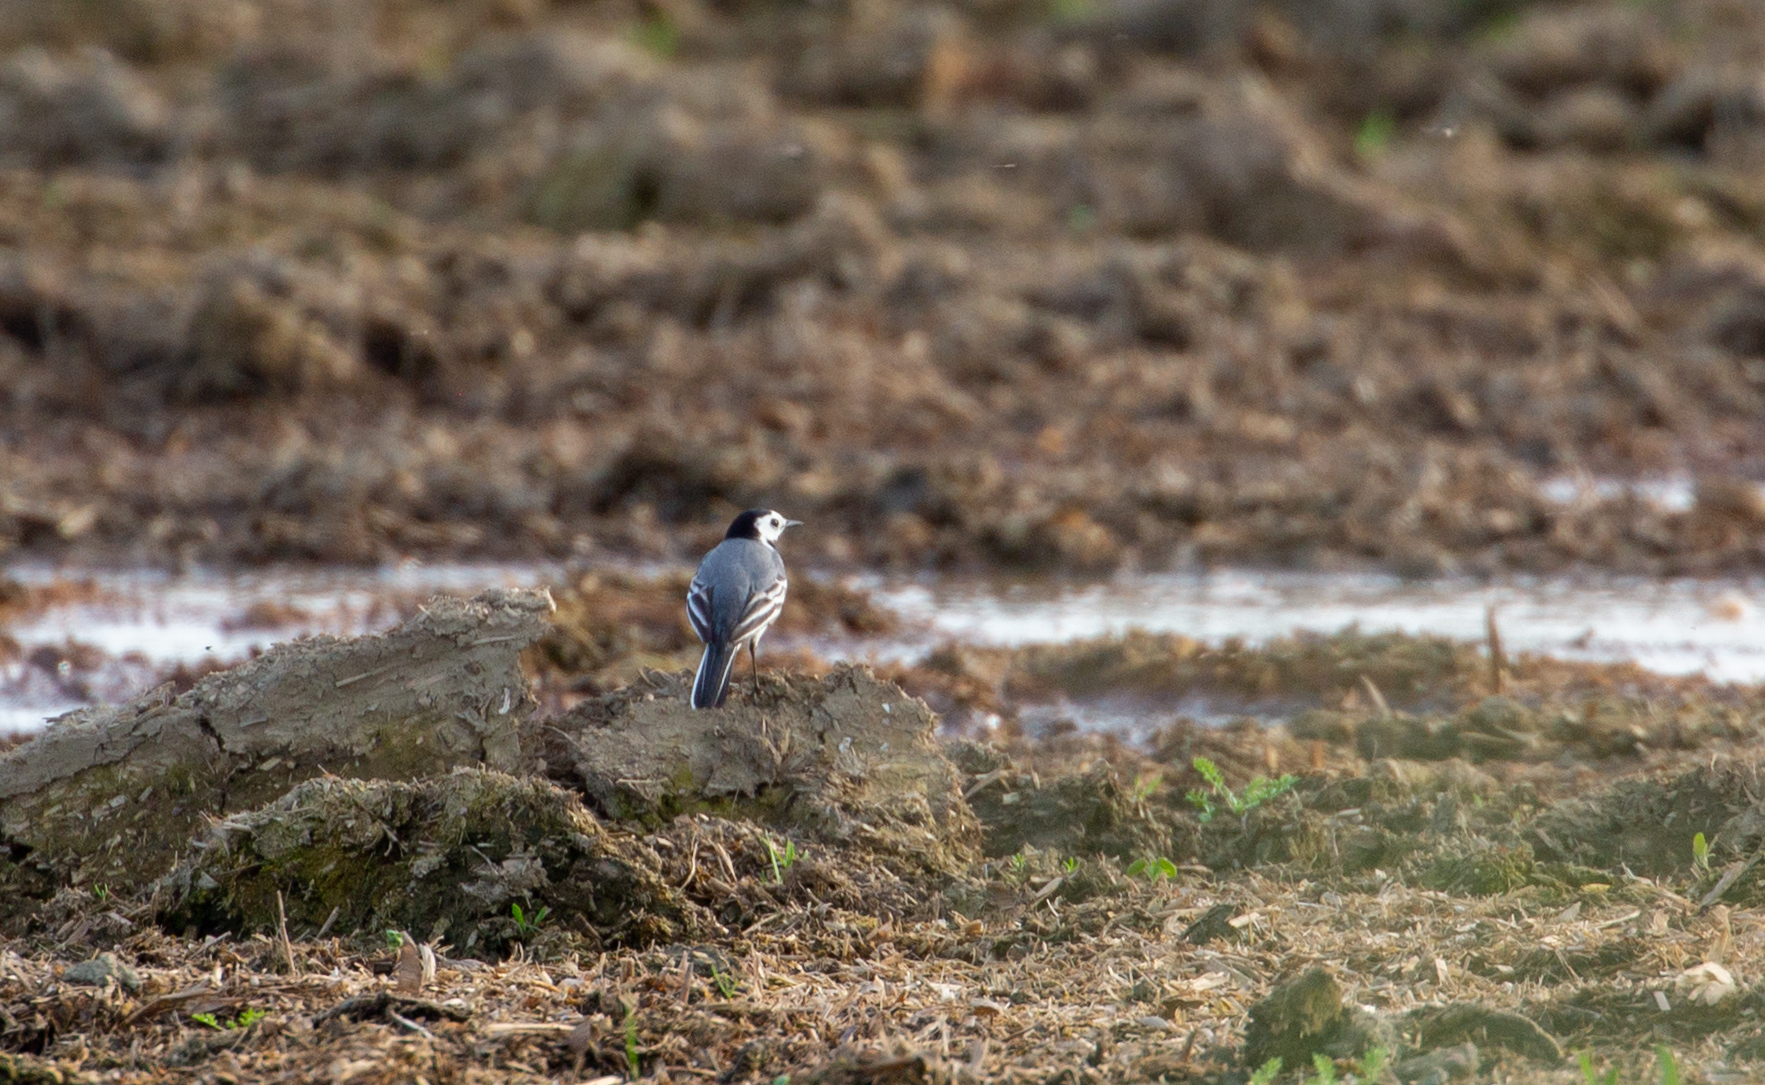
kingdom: Animalia
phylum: Chordata
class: Aves
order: Passeriformes
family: Motacillidae
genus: Motacilla
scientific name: Motacilla alba
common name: White wagtail
